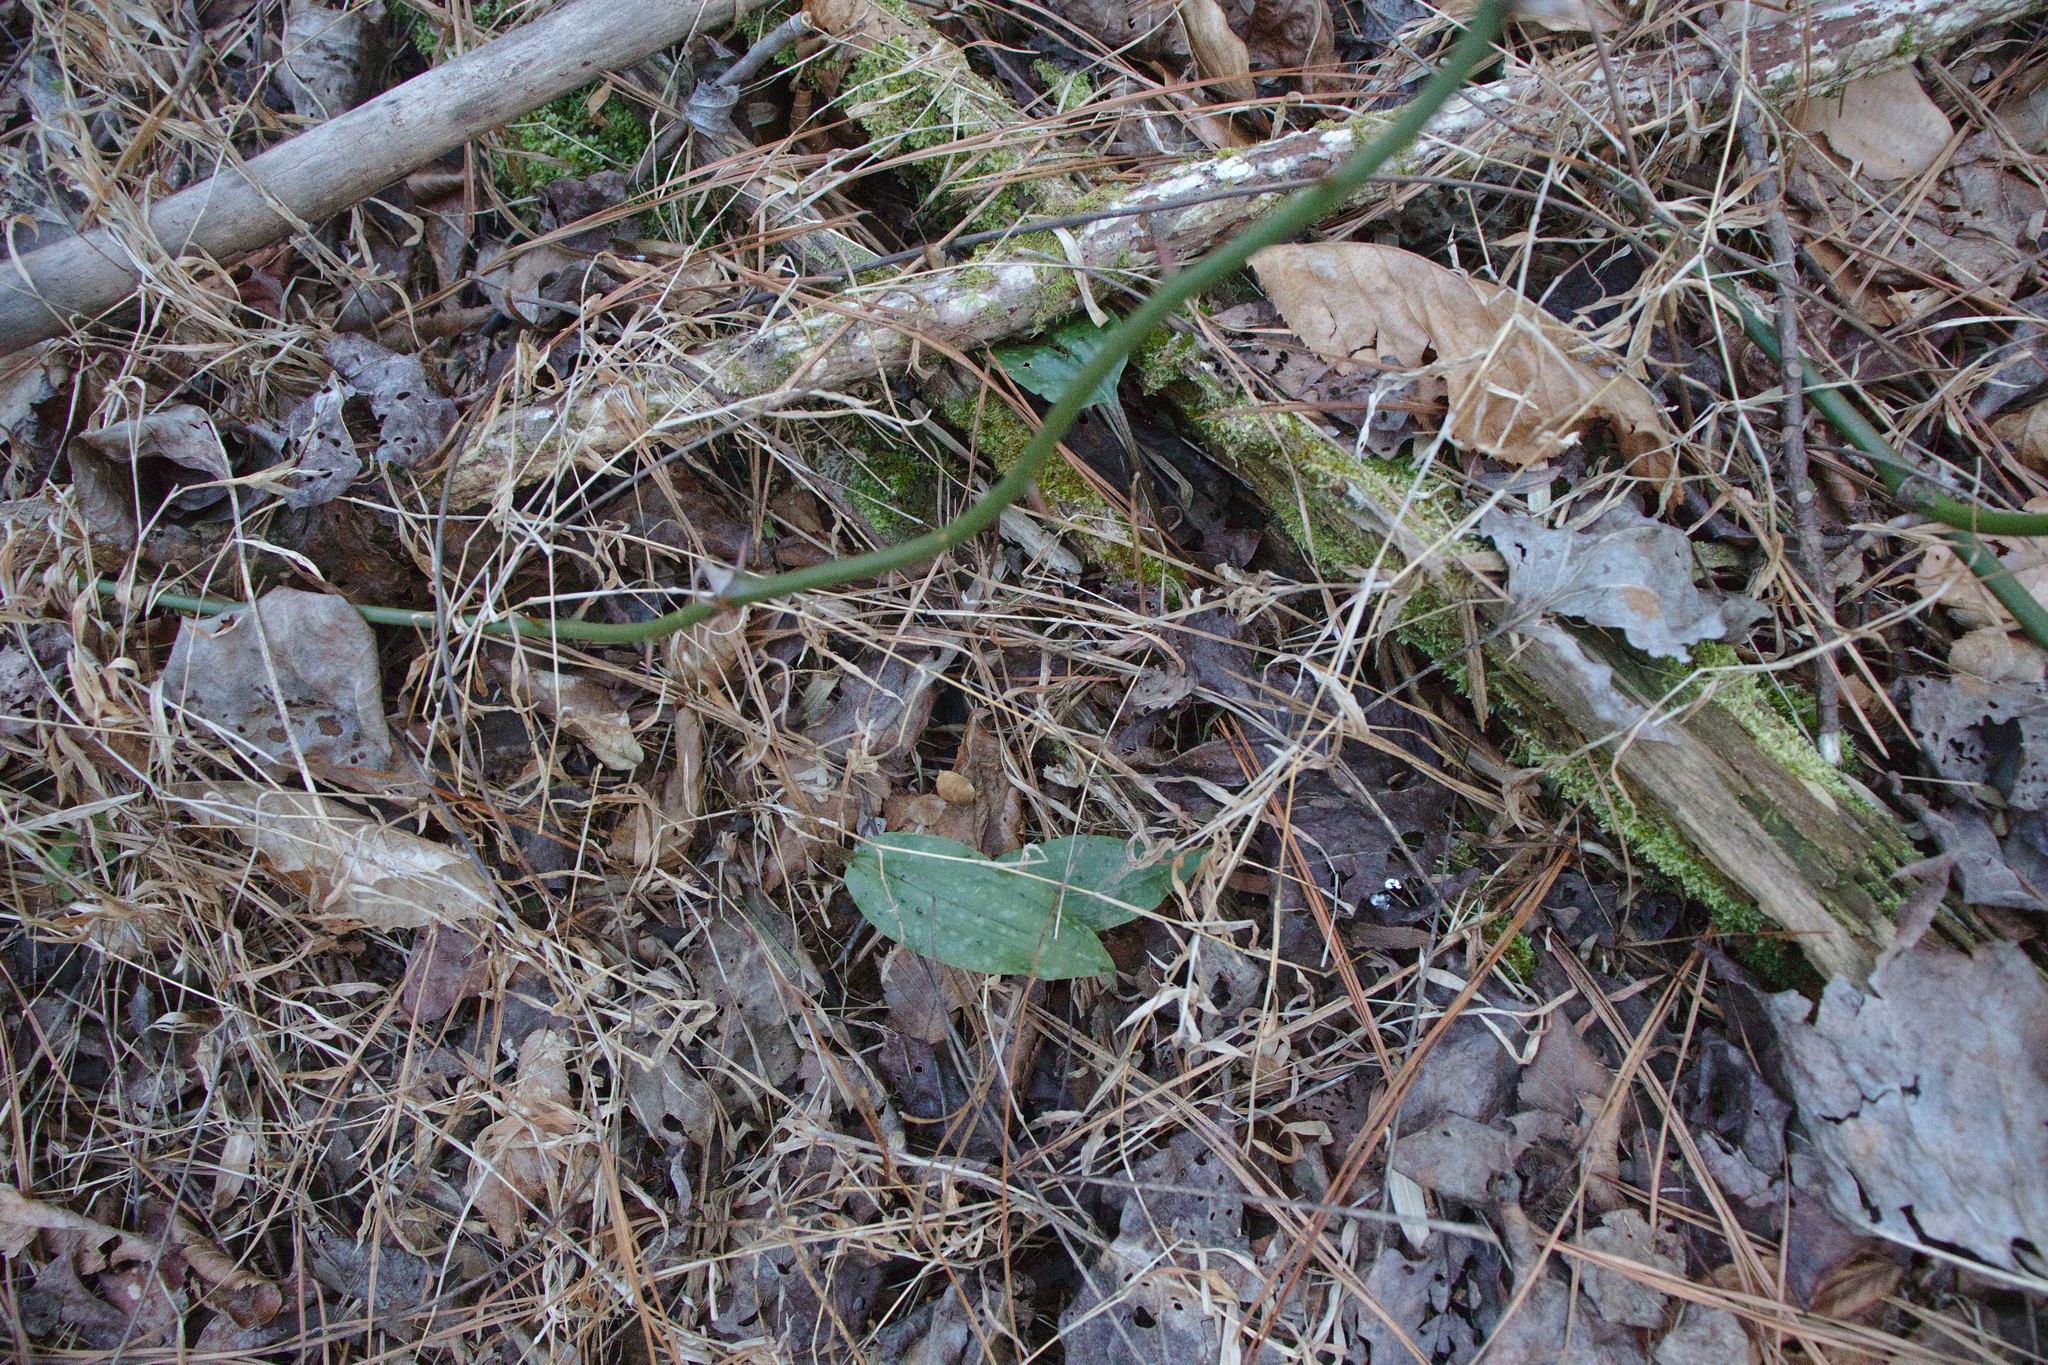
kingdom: Plantae
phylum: Tracheophyta
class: Liliopsida
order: Asparagales
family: Orchidaceae
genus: Tipularia
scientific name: Tipularia discolor
